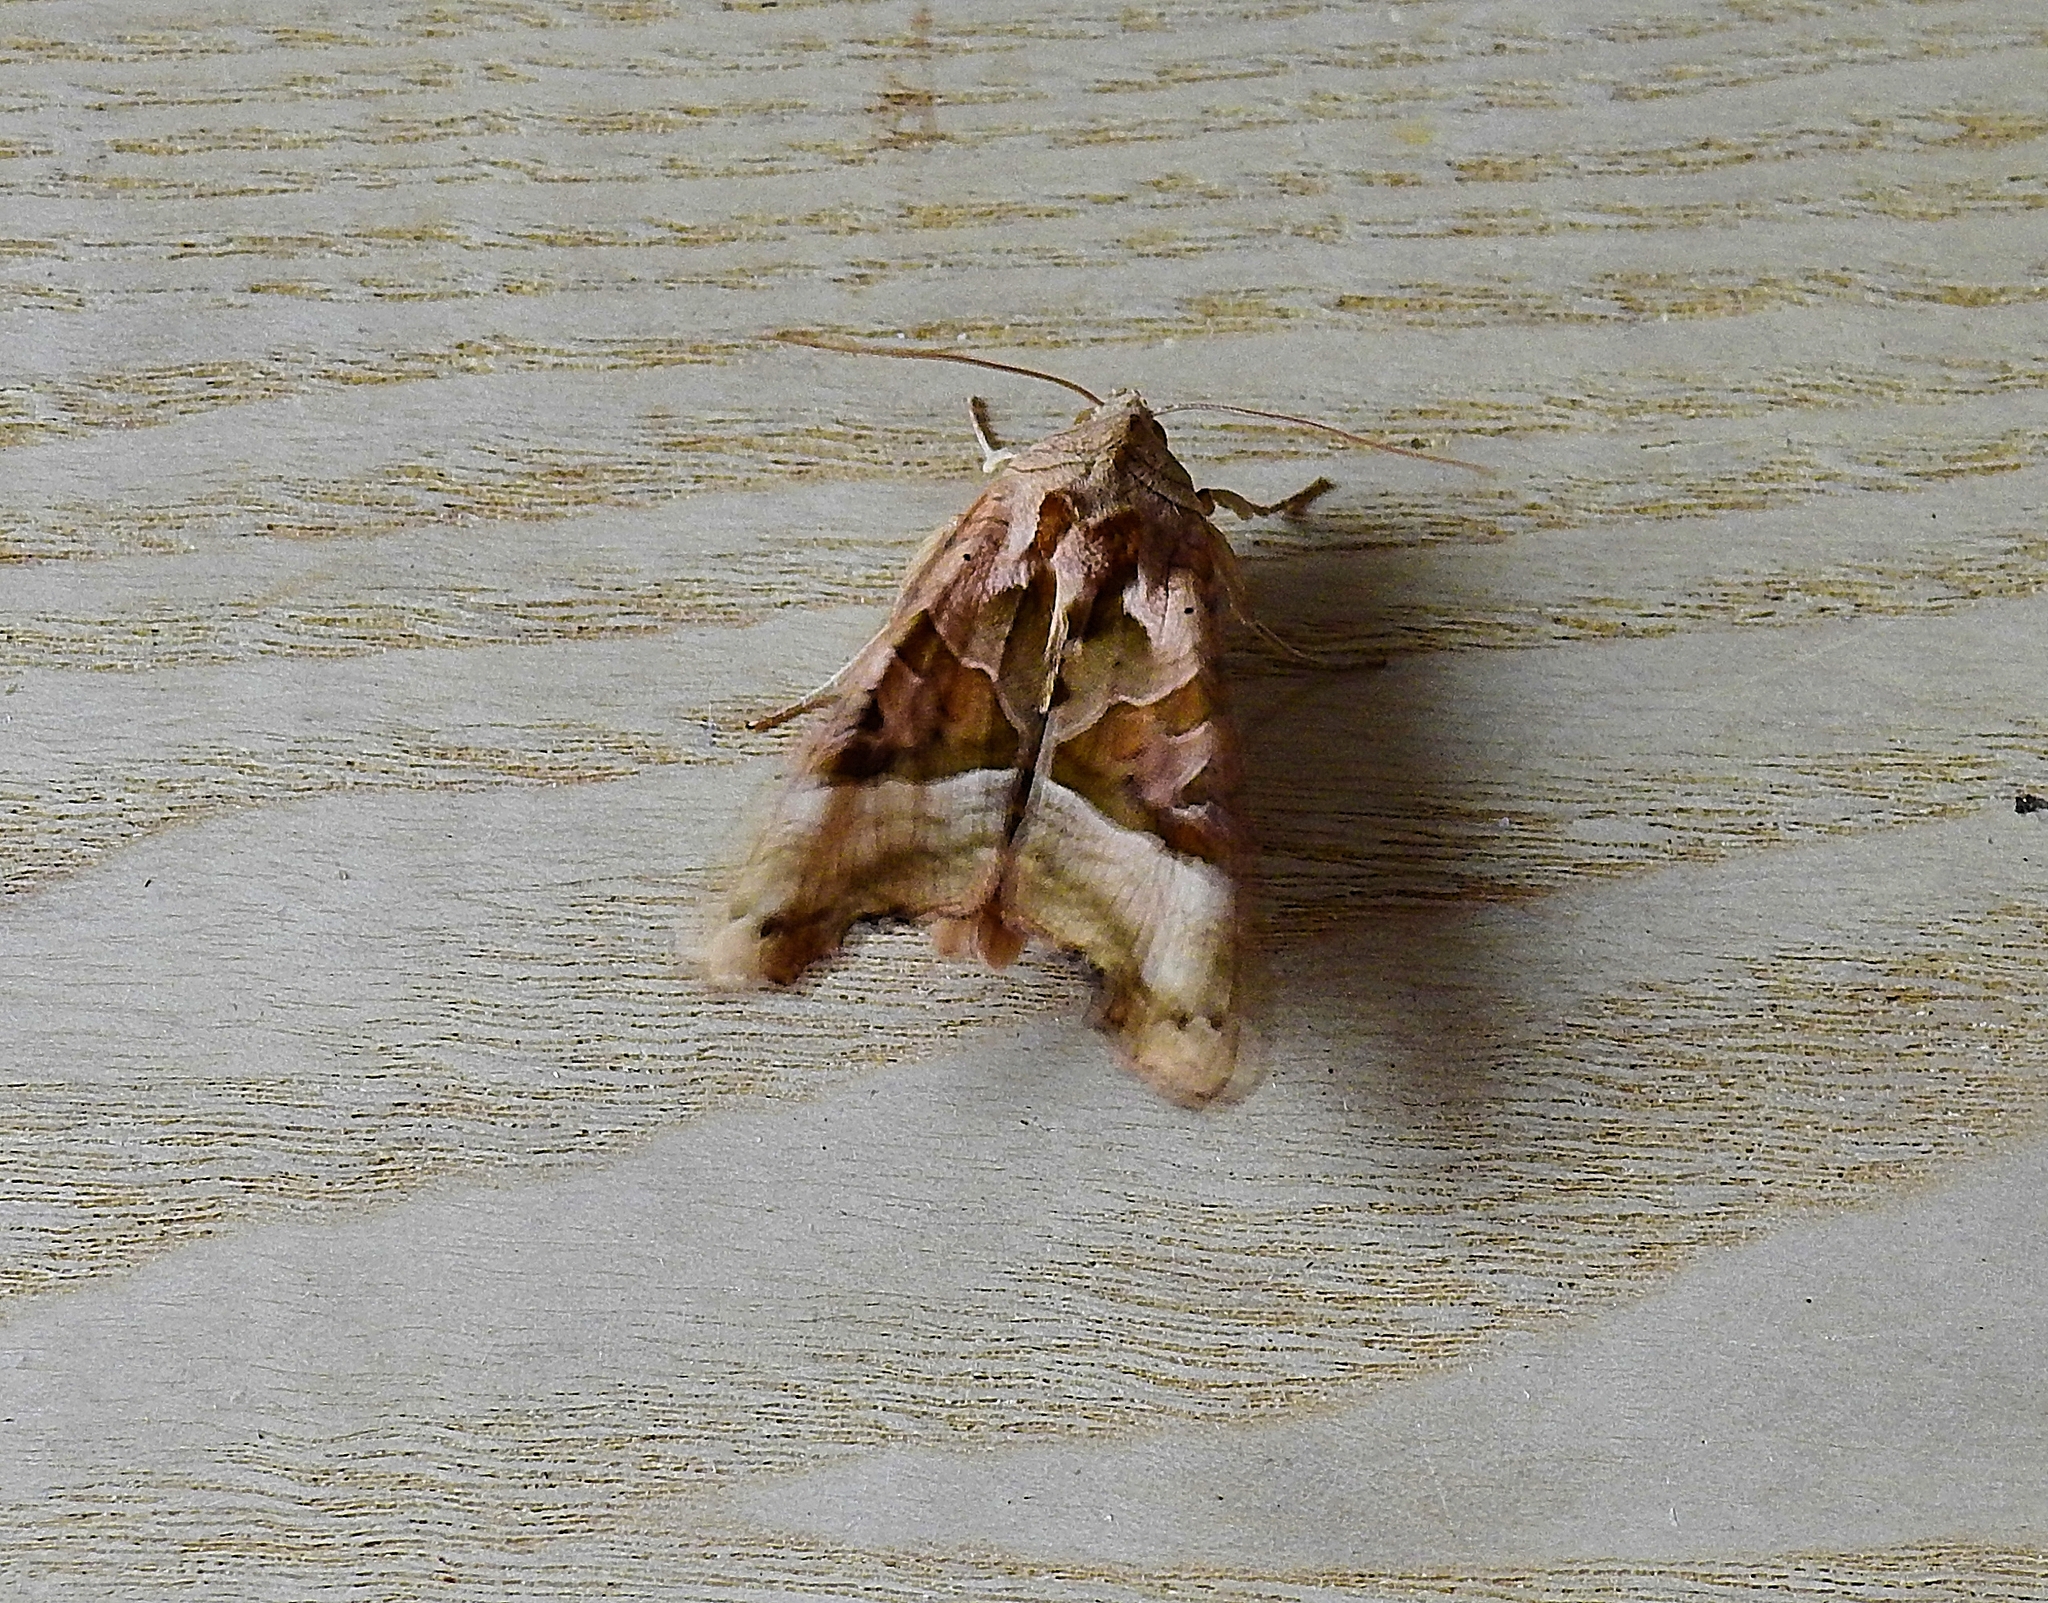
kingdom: Animalia
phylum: Arthropoda
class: Insecta
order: Lepidoptera
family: Noctuidae
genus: Phlogophora
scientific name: Phlogophora meticulosa
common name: Angle shades
